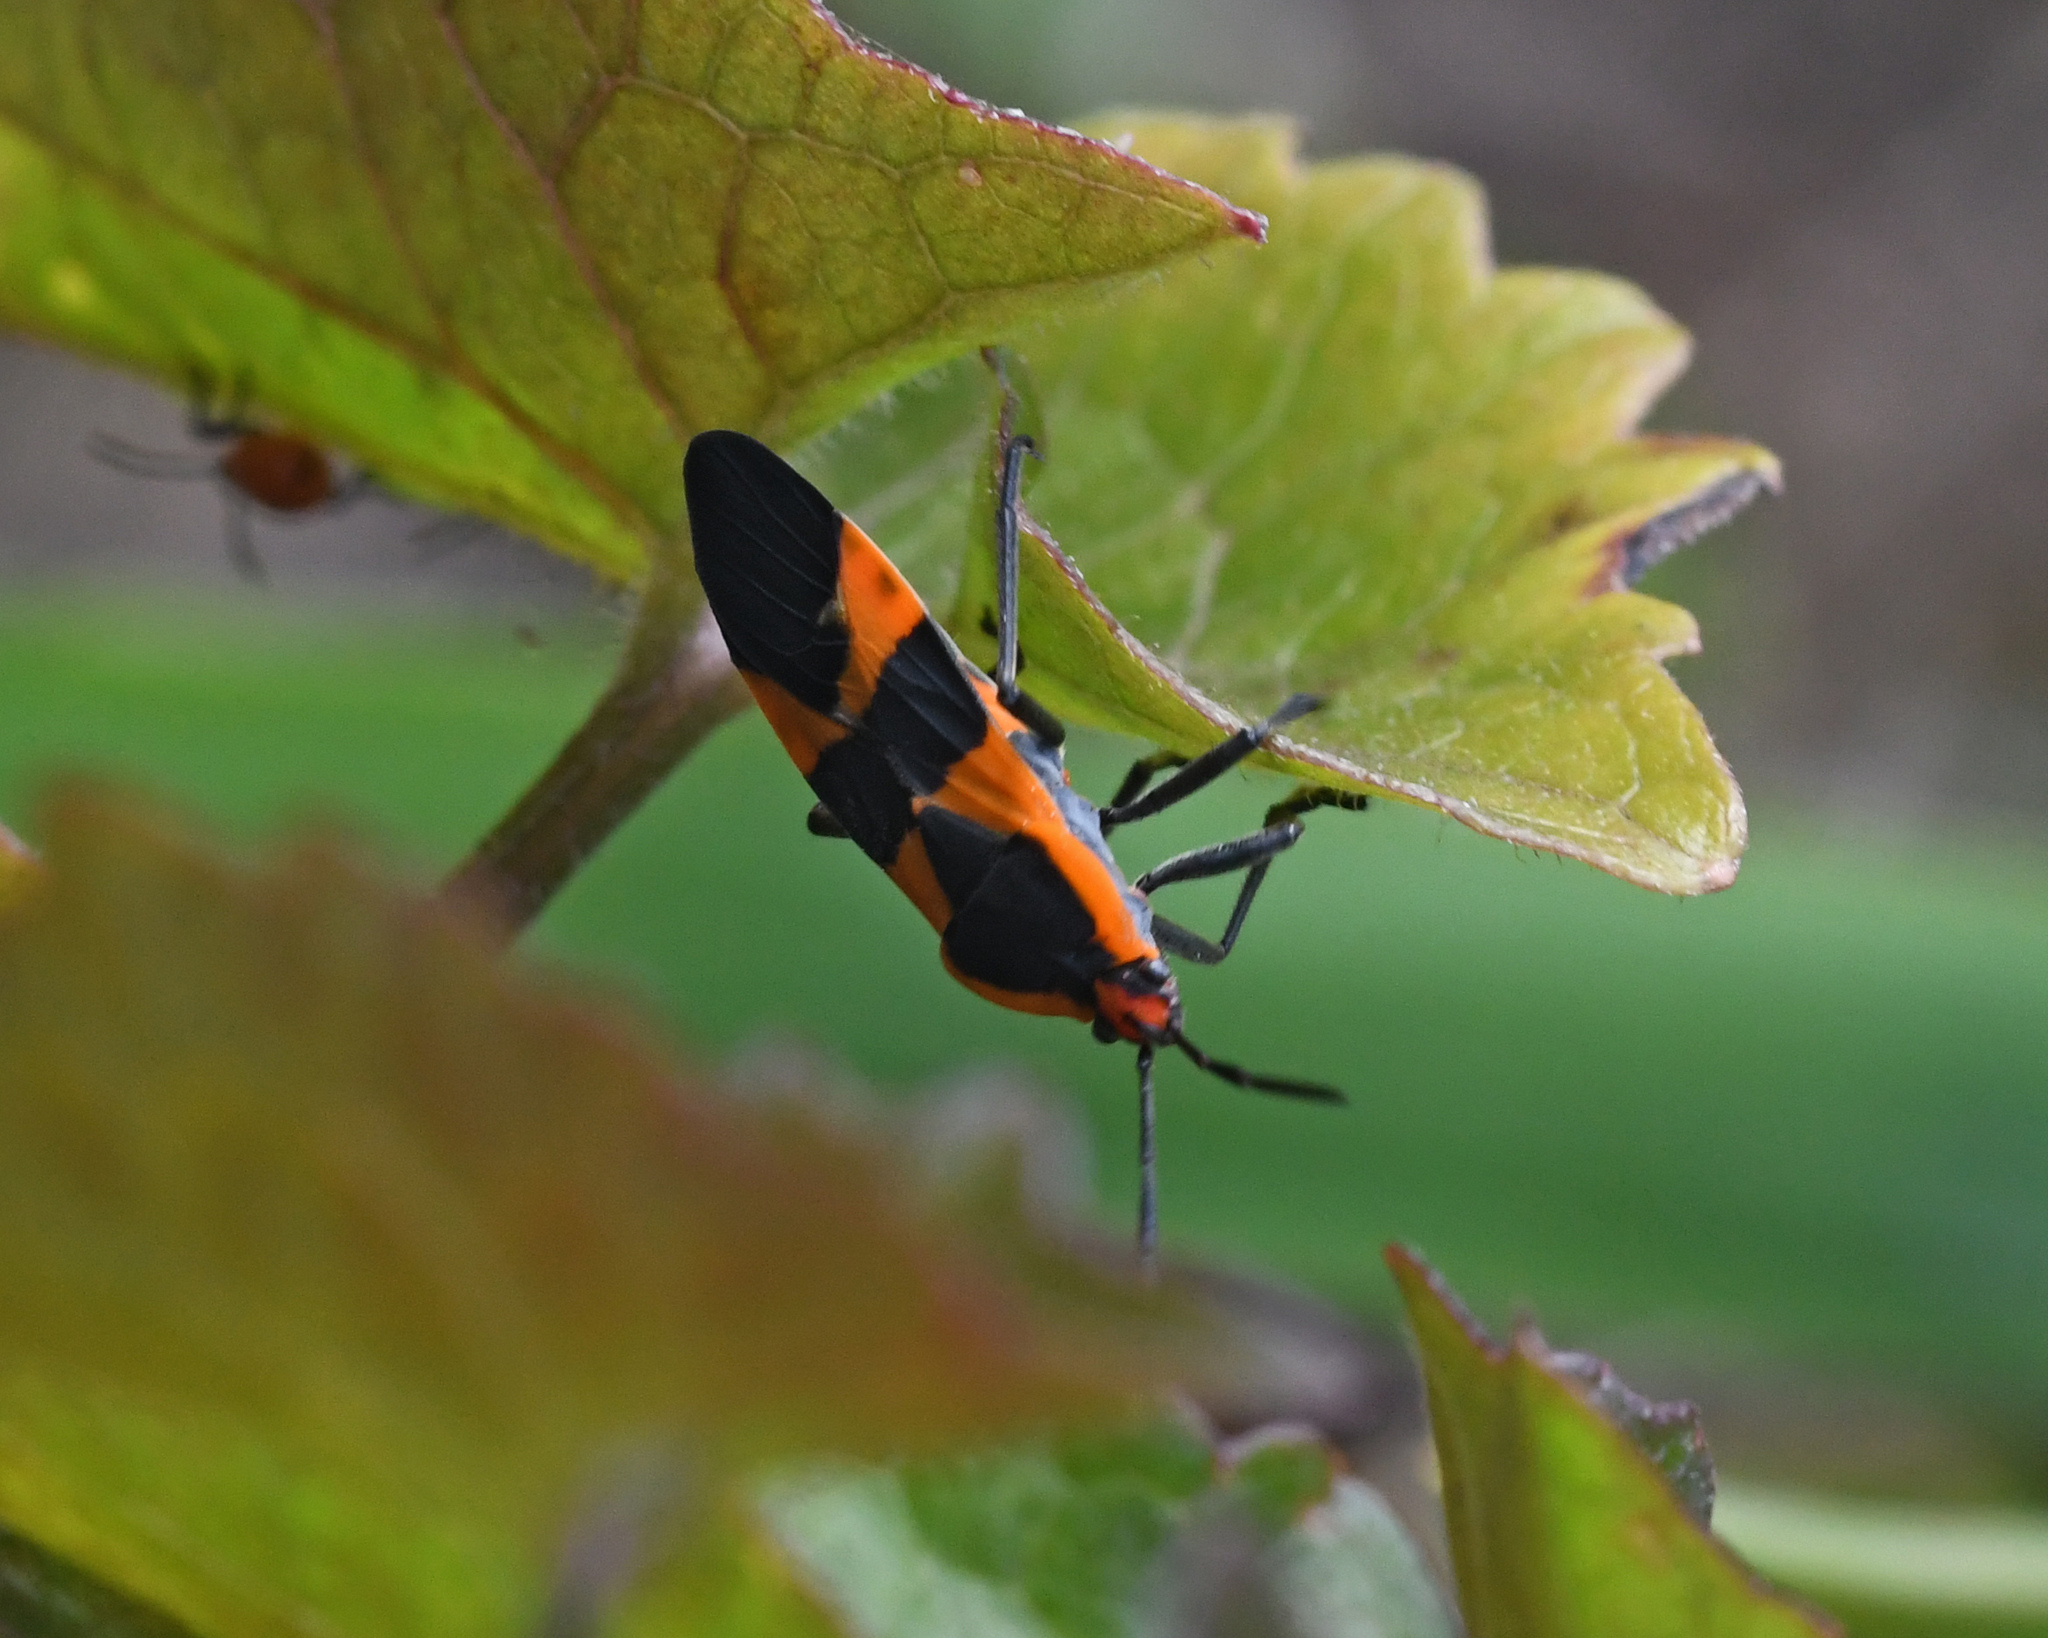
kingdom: Animalia
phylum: Arthropoda
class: Insecta
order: Hemiptera
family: Lygaeidae
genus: Oncopeltus
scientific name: Oncopeltus fasciatus
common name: Large milkweed bug
